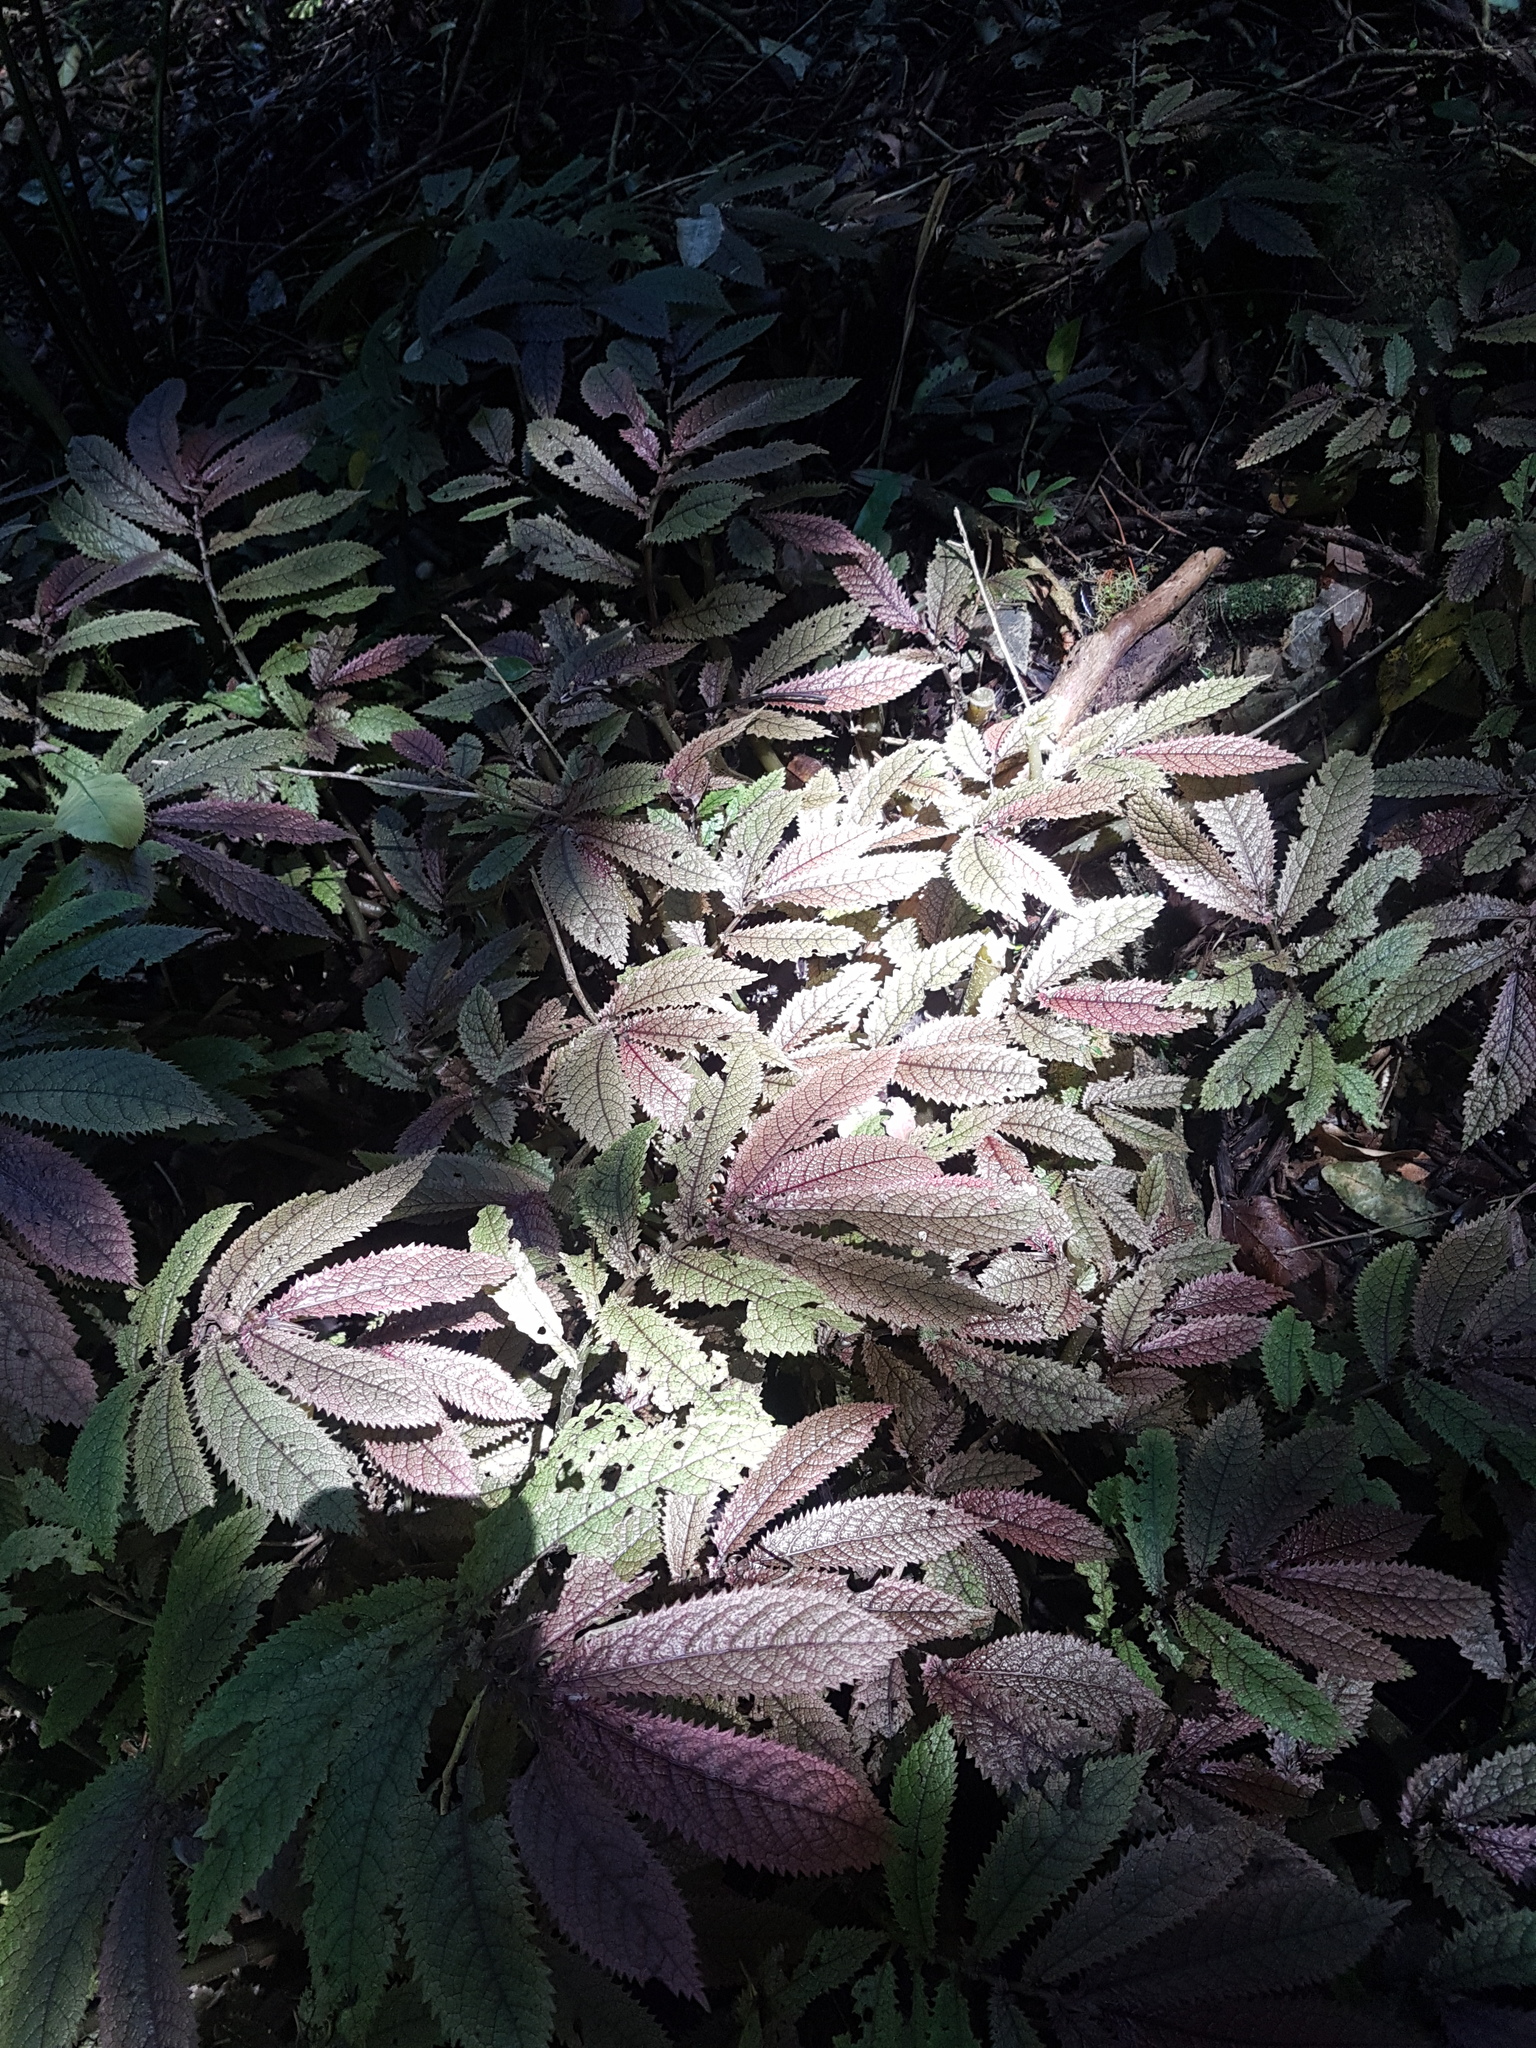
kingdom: Plantae
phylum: Tracheophyta
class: Magnoliopsida
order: Rosales
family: Urticaceae
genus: Elatostema
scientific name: Elatostema rugosum
